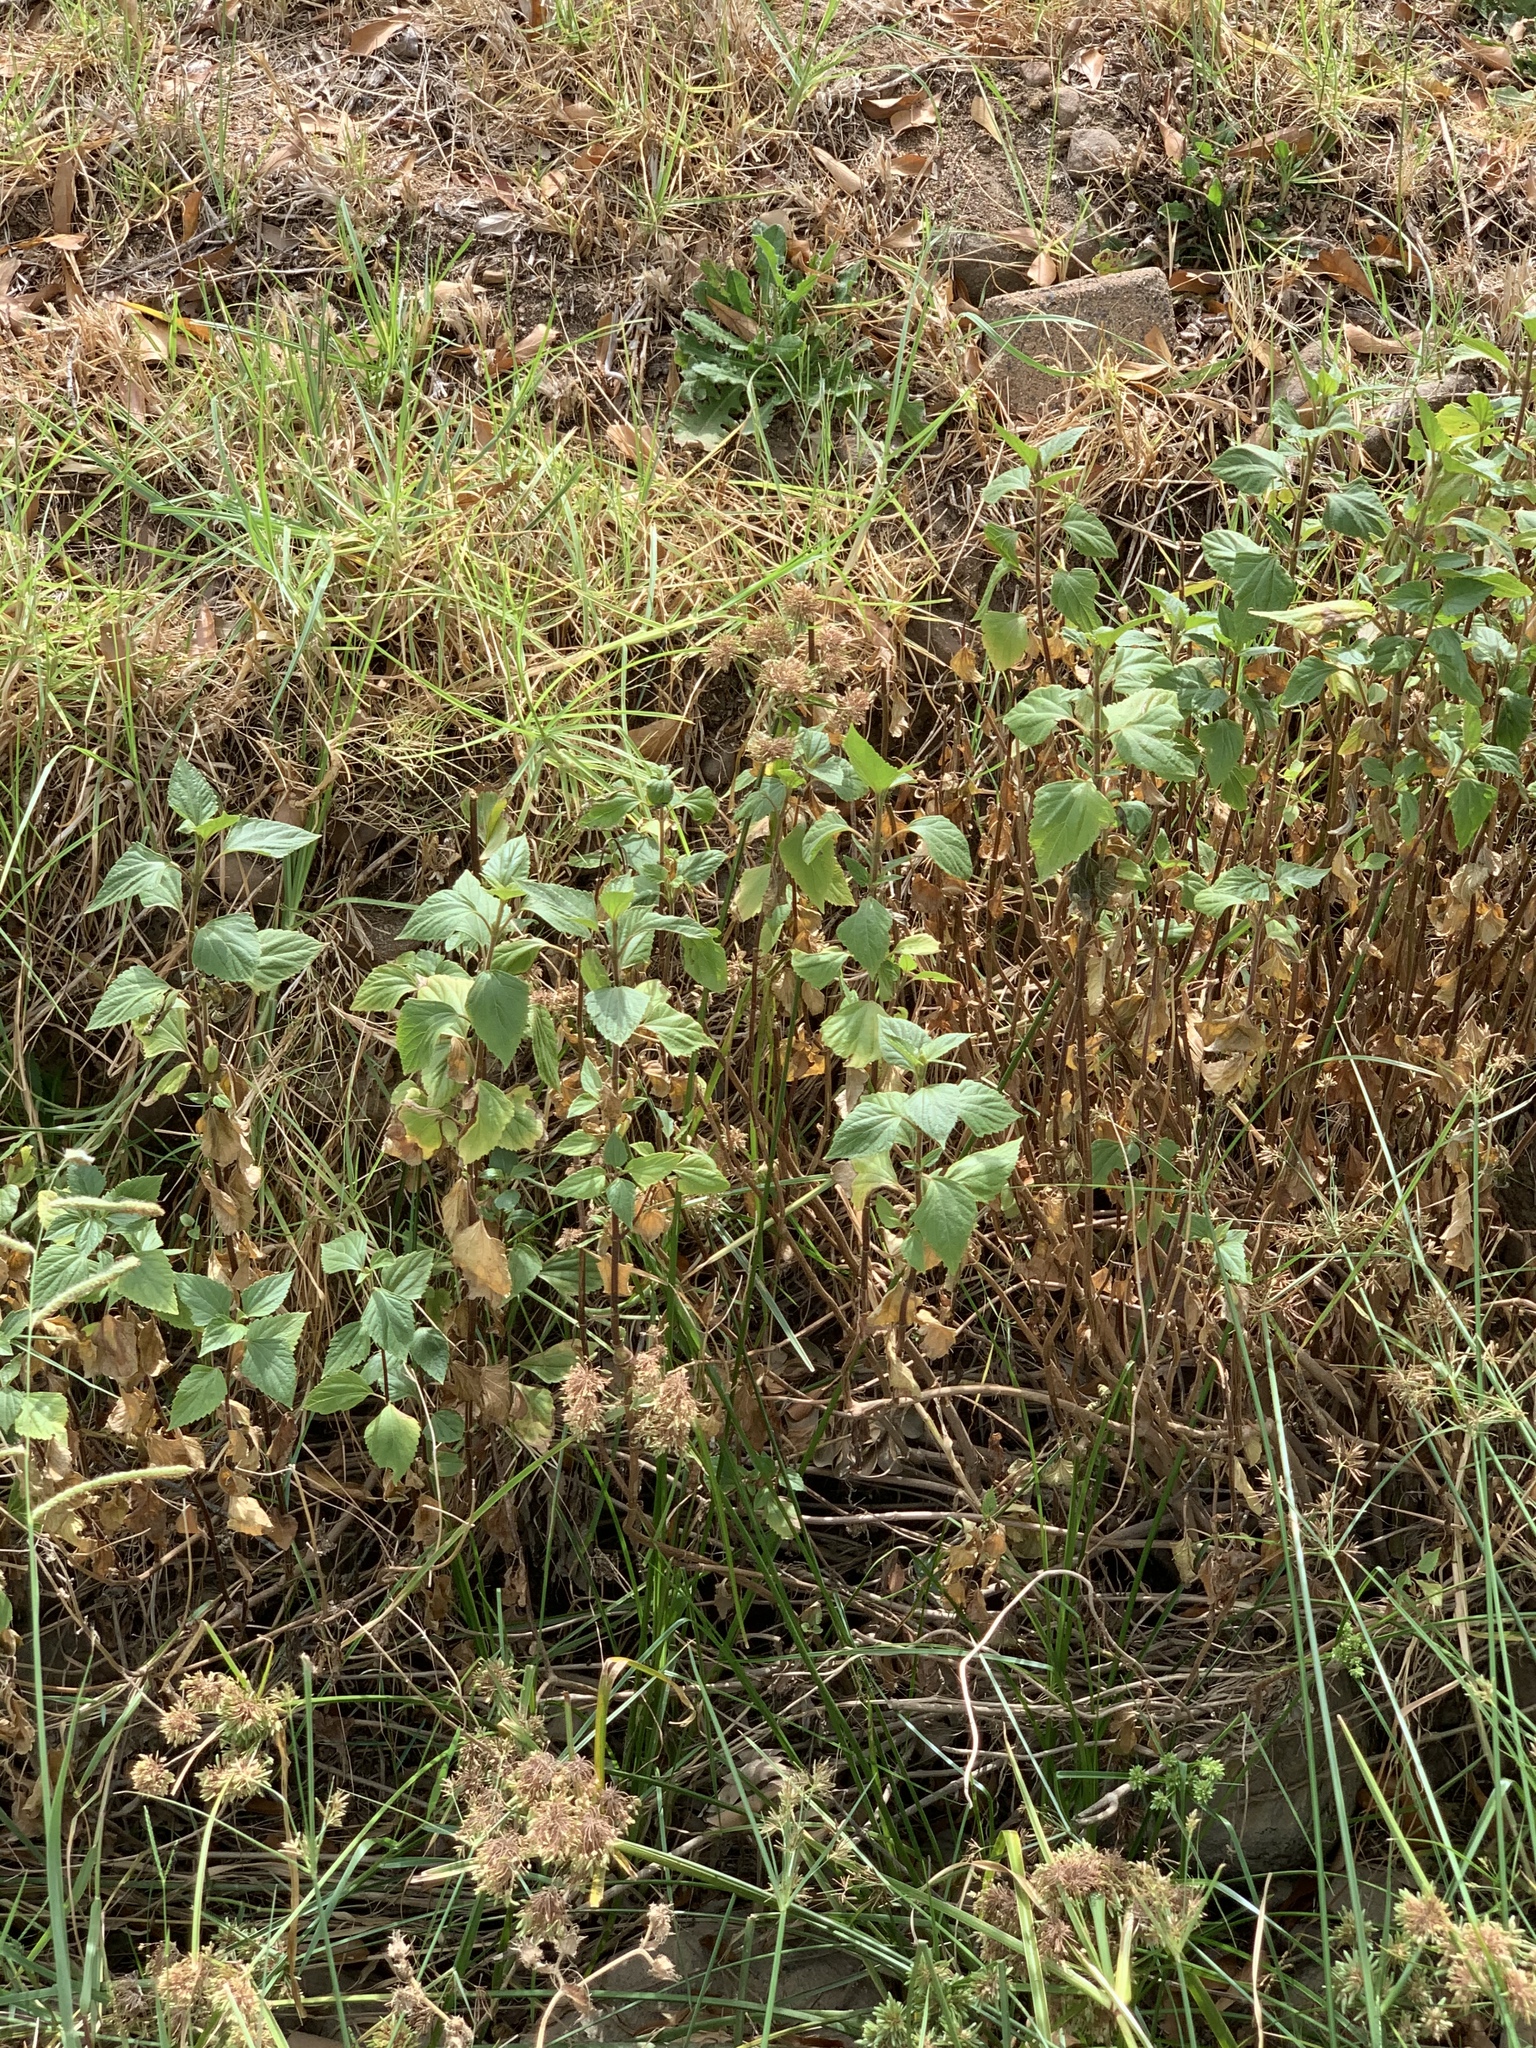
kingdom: Plantae
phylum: Tracheophyta
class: Magnoliopsida
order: Asterales
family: Asteraceae
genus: Ageratina
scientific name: Ageratina adenophora
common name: Sticky snakeroot
